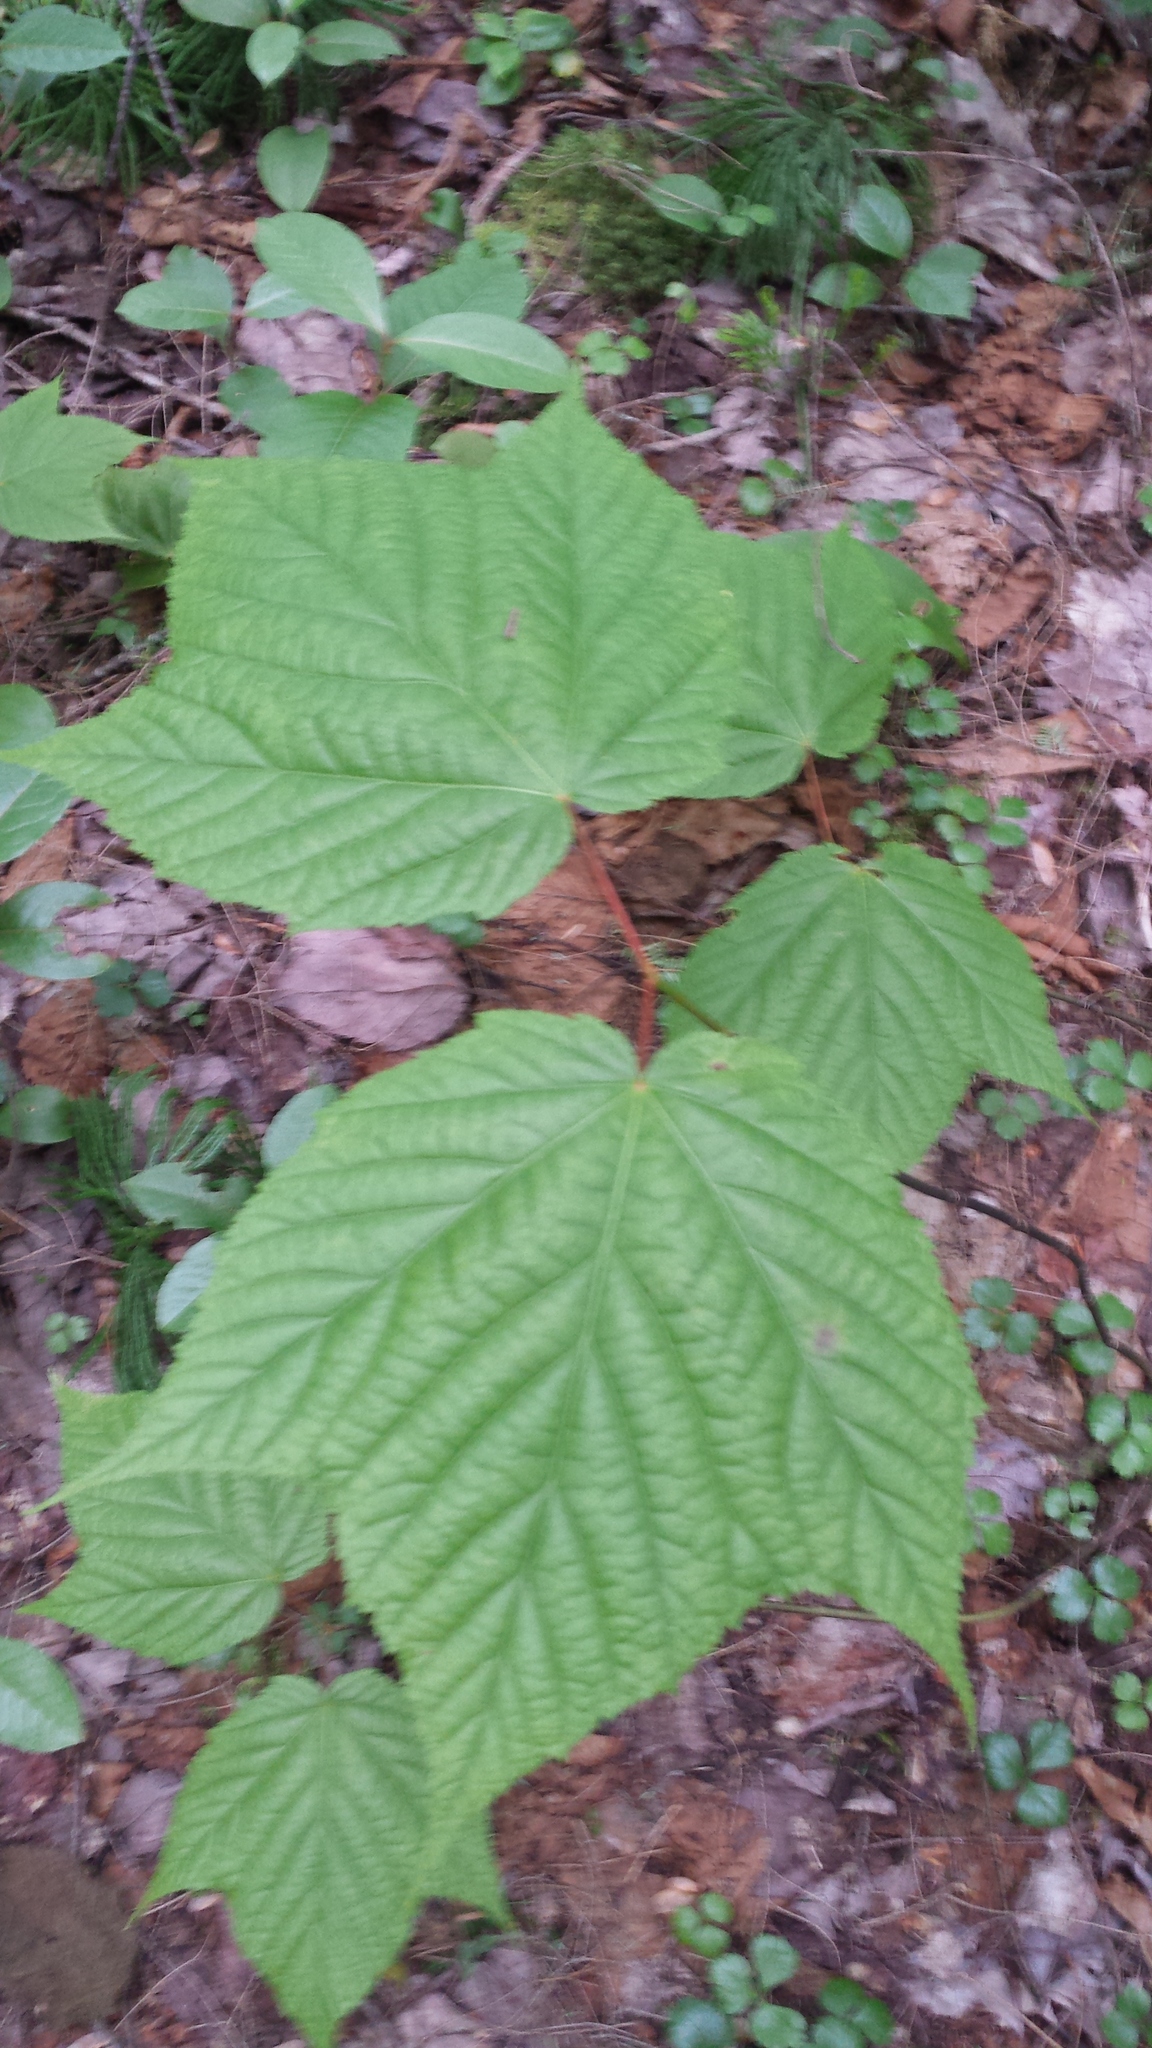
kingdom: Plantae
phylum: Tracheophyta
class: Magnoliopsida
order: Sapindales
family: Sapindaceae
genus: Acer
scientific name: Acer pensylvanicum
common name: Moosewood
